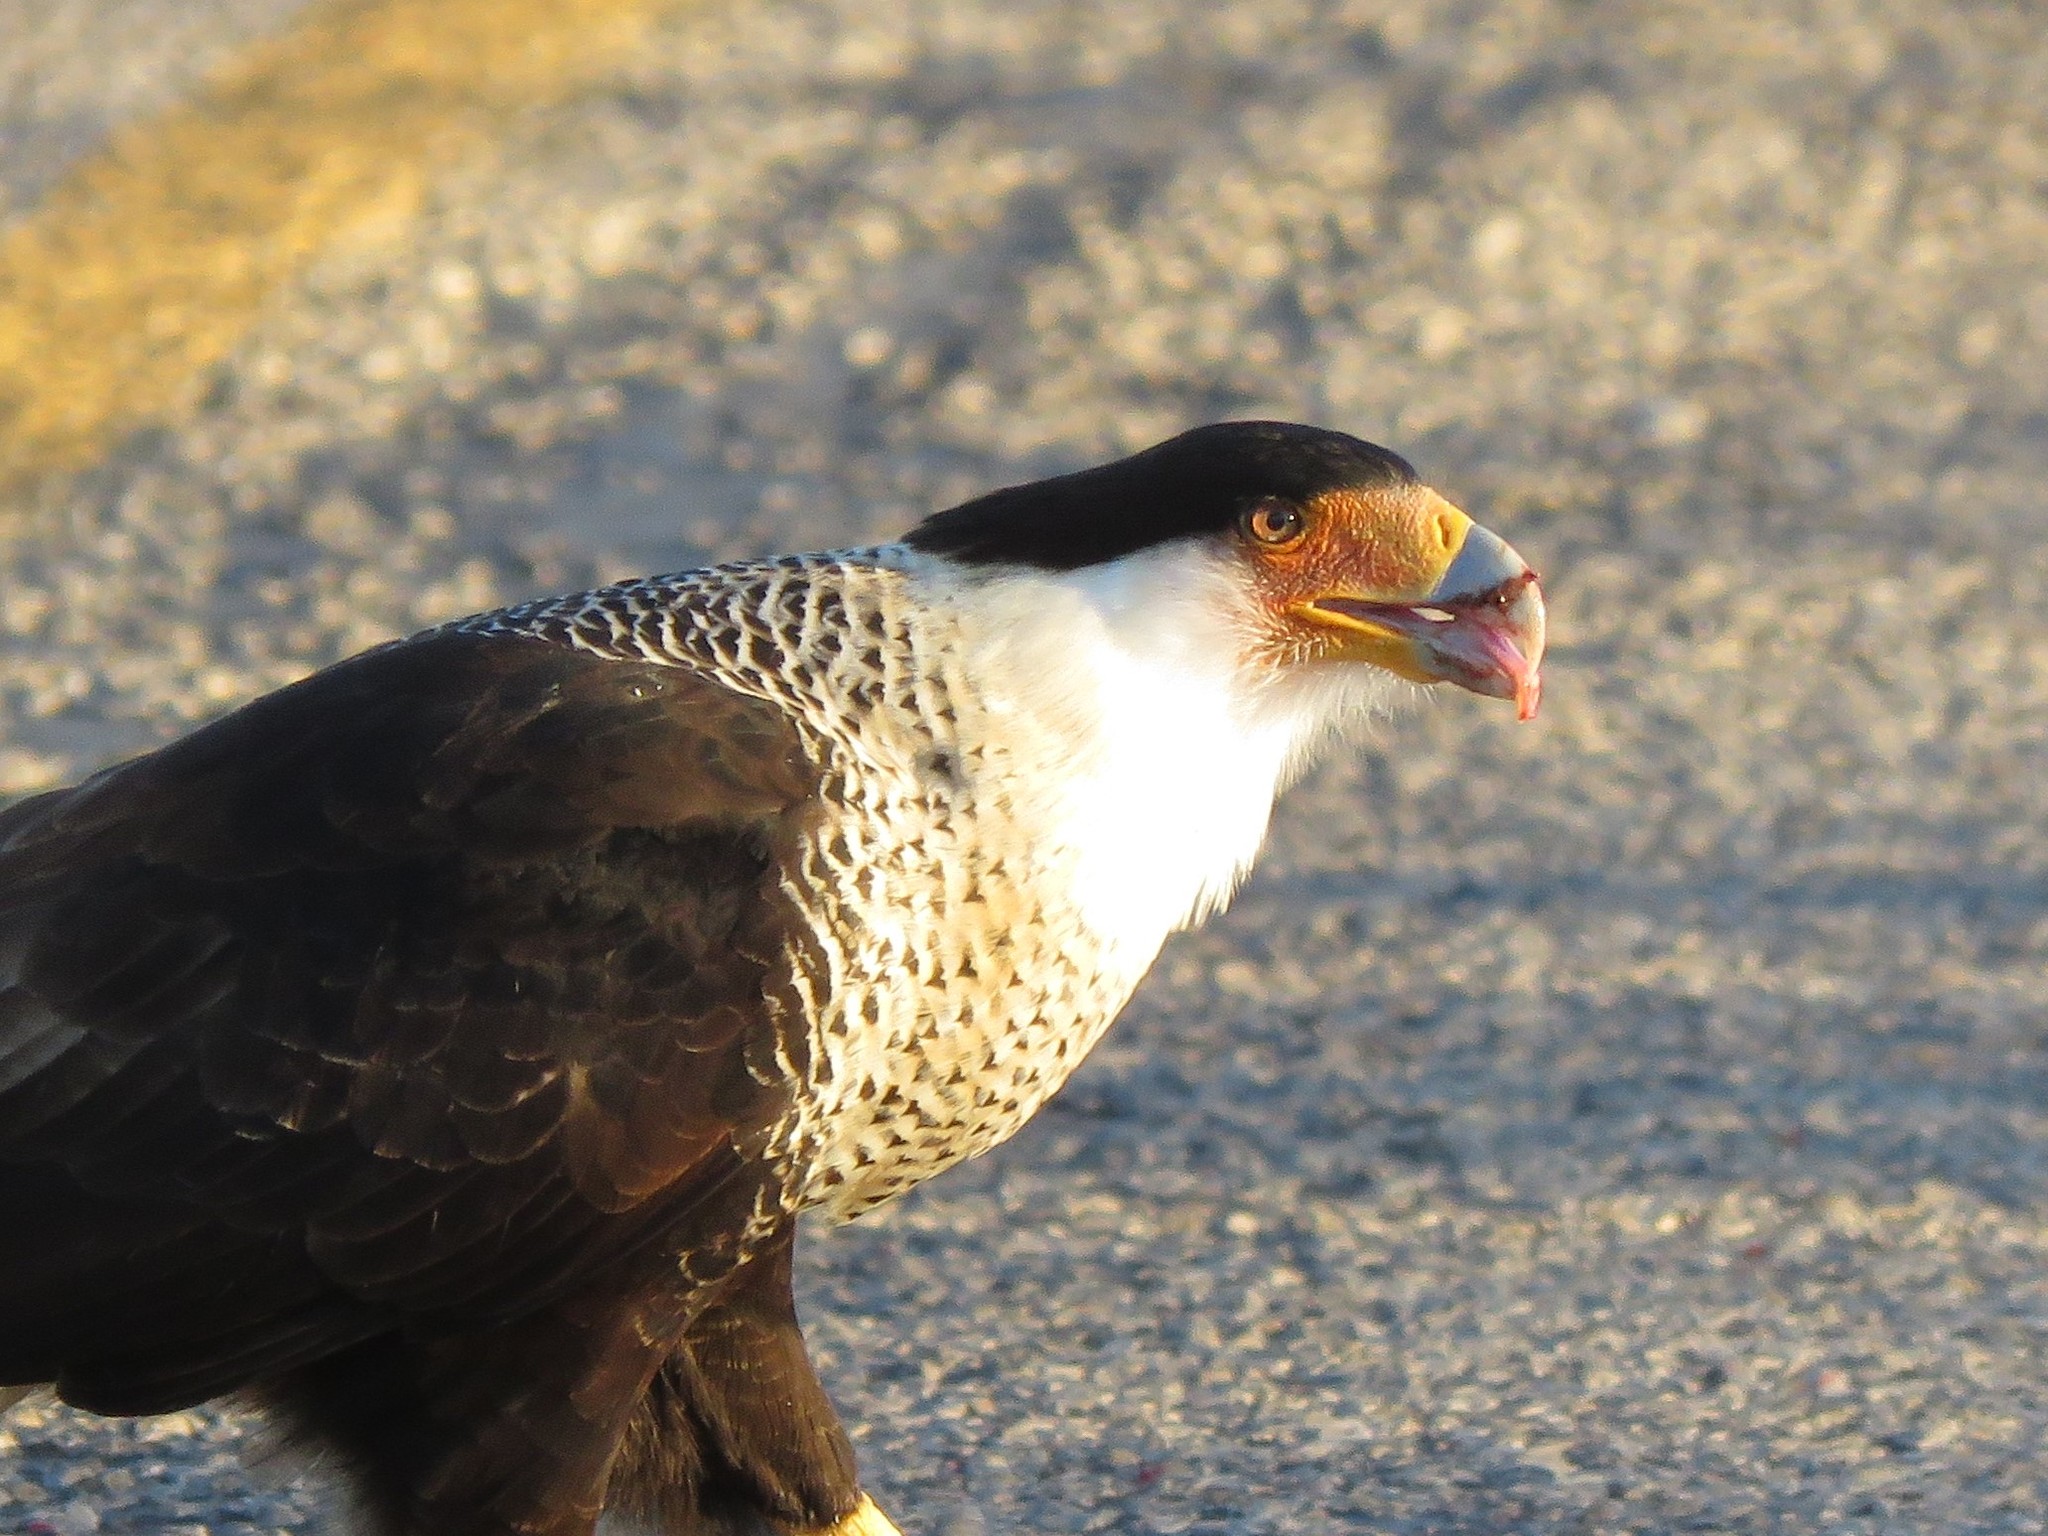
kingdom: Animalia
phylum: Chordata
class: Aves
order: Falconiformes
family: Falconidae
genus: Caracara
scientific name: Caracara plancus
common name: Southern caracara
